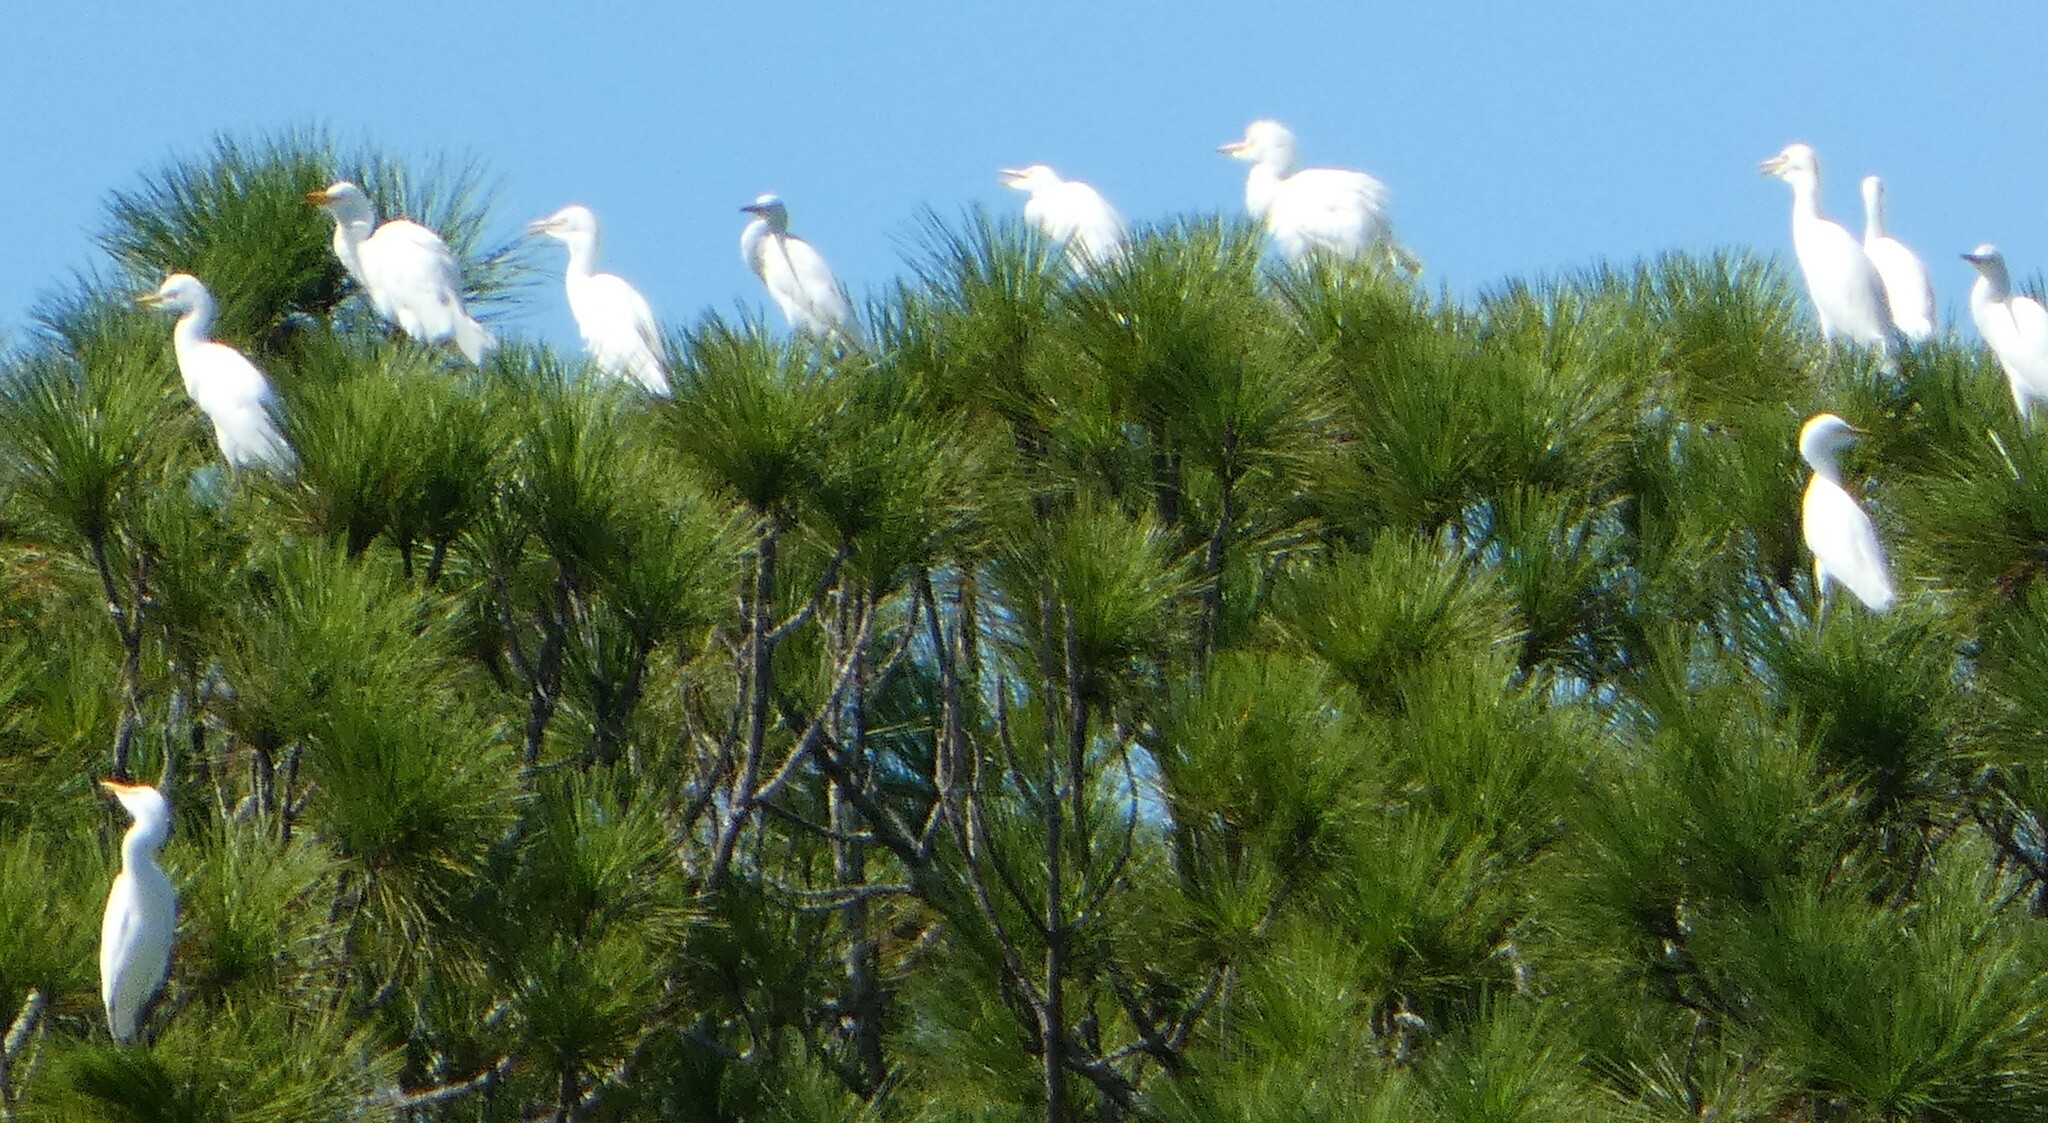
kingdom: Animalia
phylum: Chordata
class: Aves
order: Pelecaniformes
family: Ardeidae
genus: Bubulcus
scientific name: Bubulcus ibis
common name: Cattle egret
